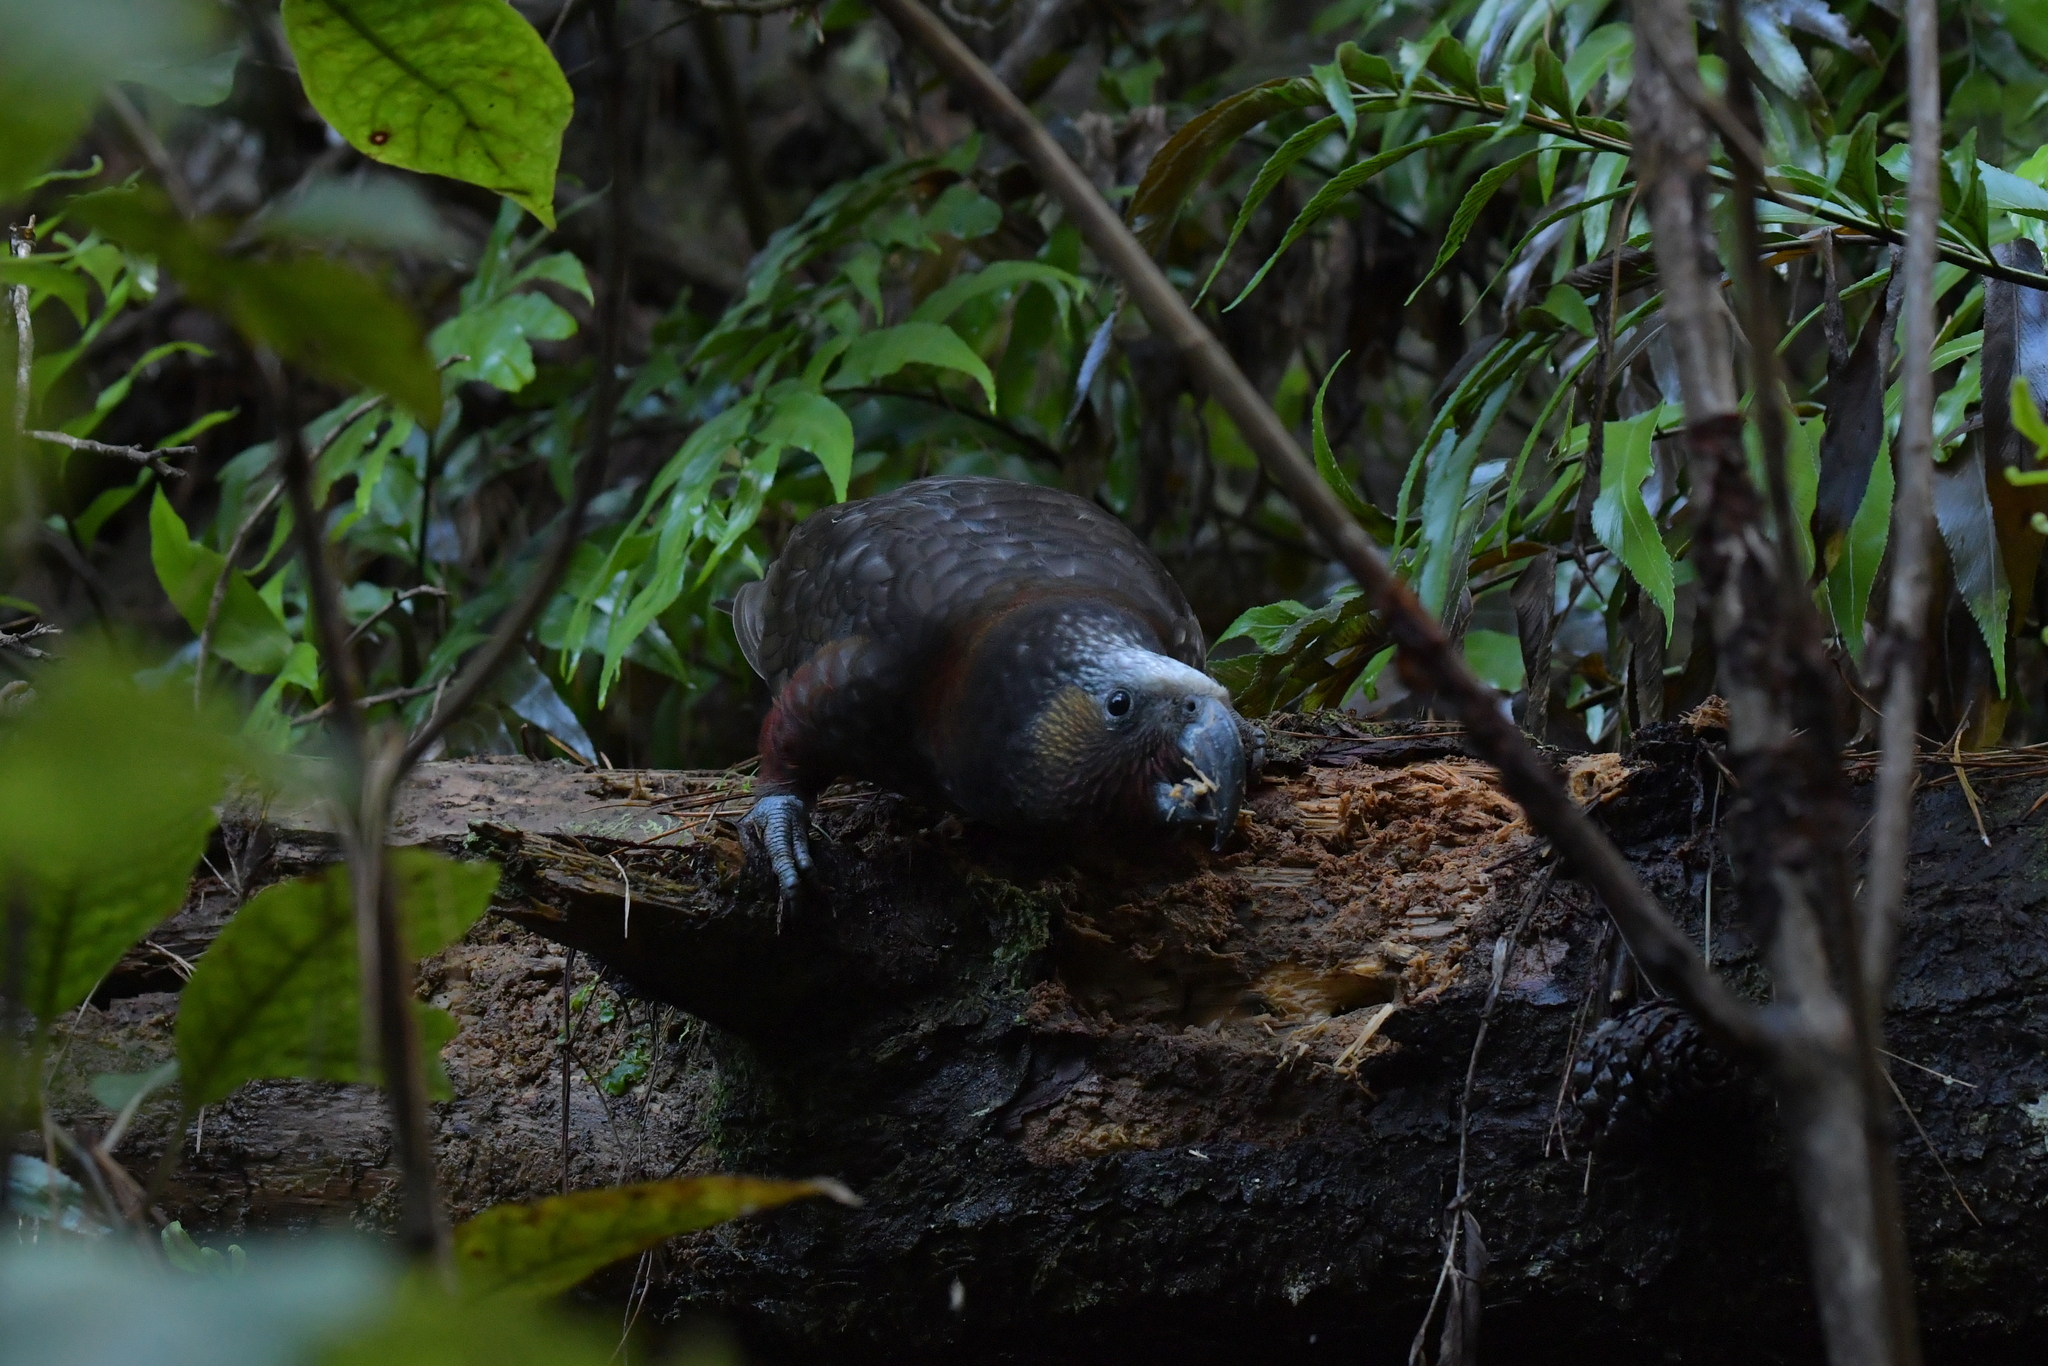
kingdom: Animalia
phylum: Chordata
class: Aves
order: Psittaciformes
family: Psittacidae
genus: Nestor
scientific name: Nestor meridionalis
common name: New zealand kaka
